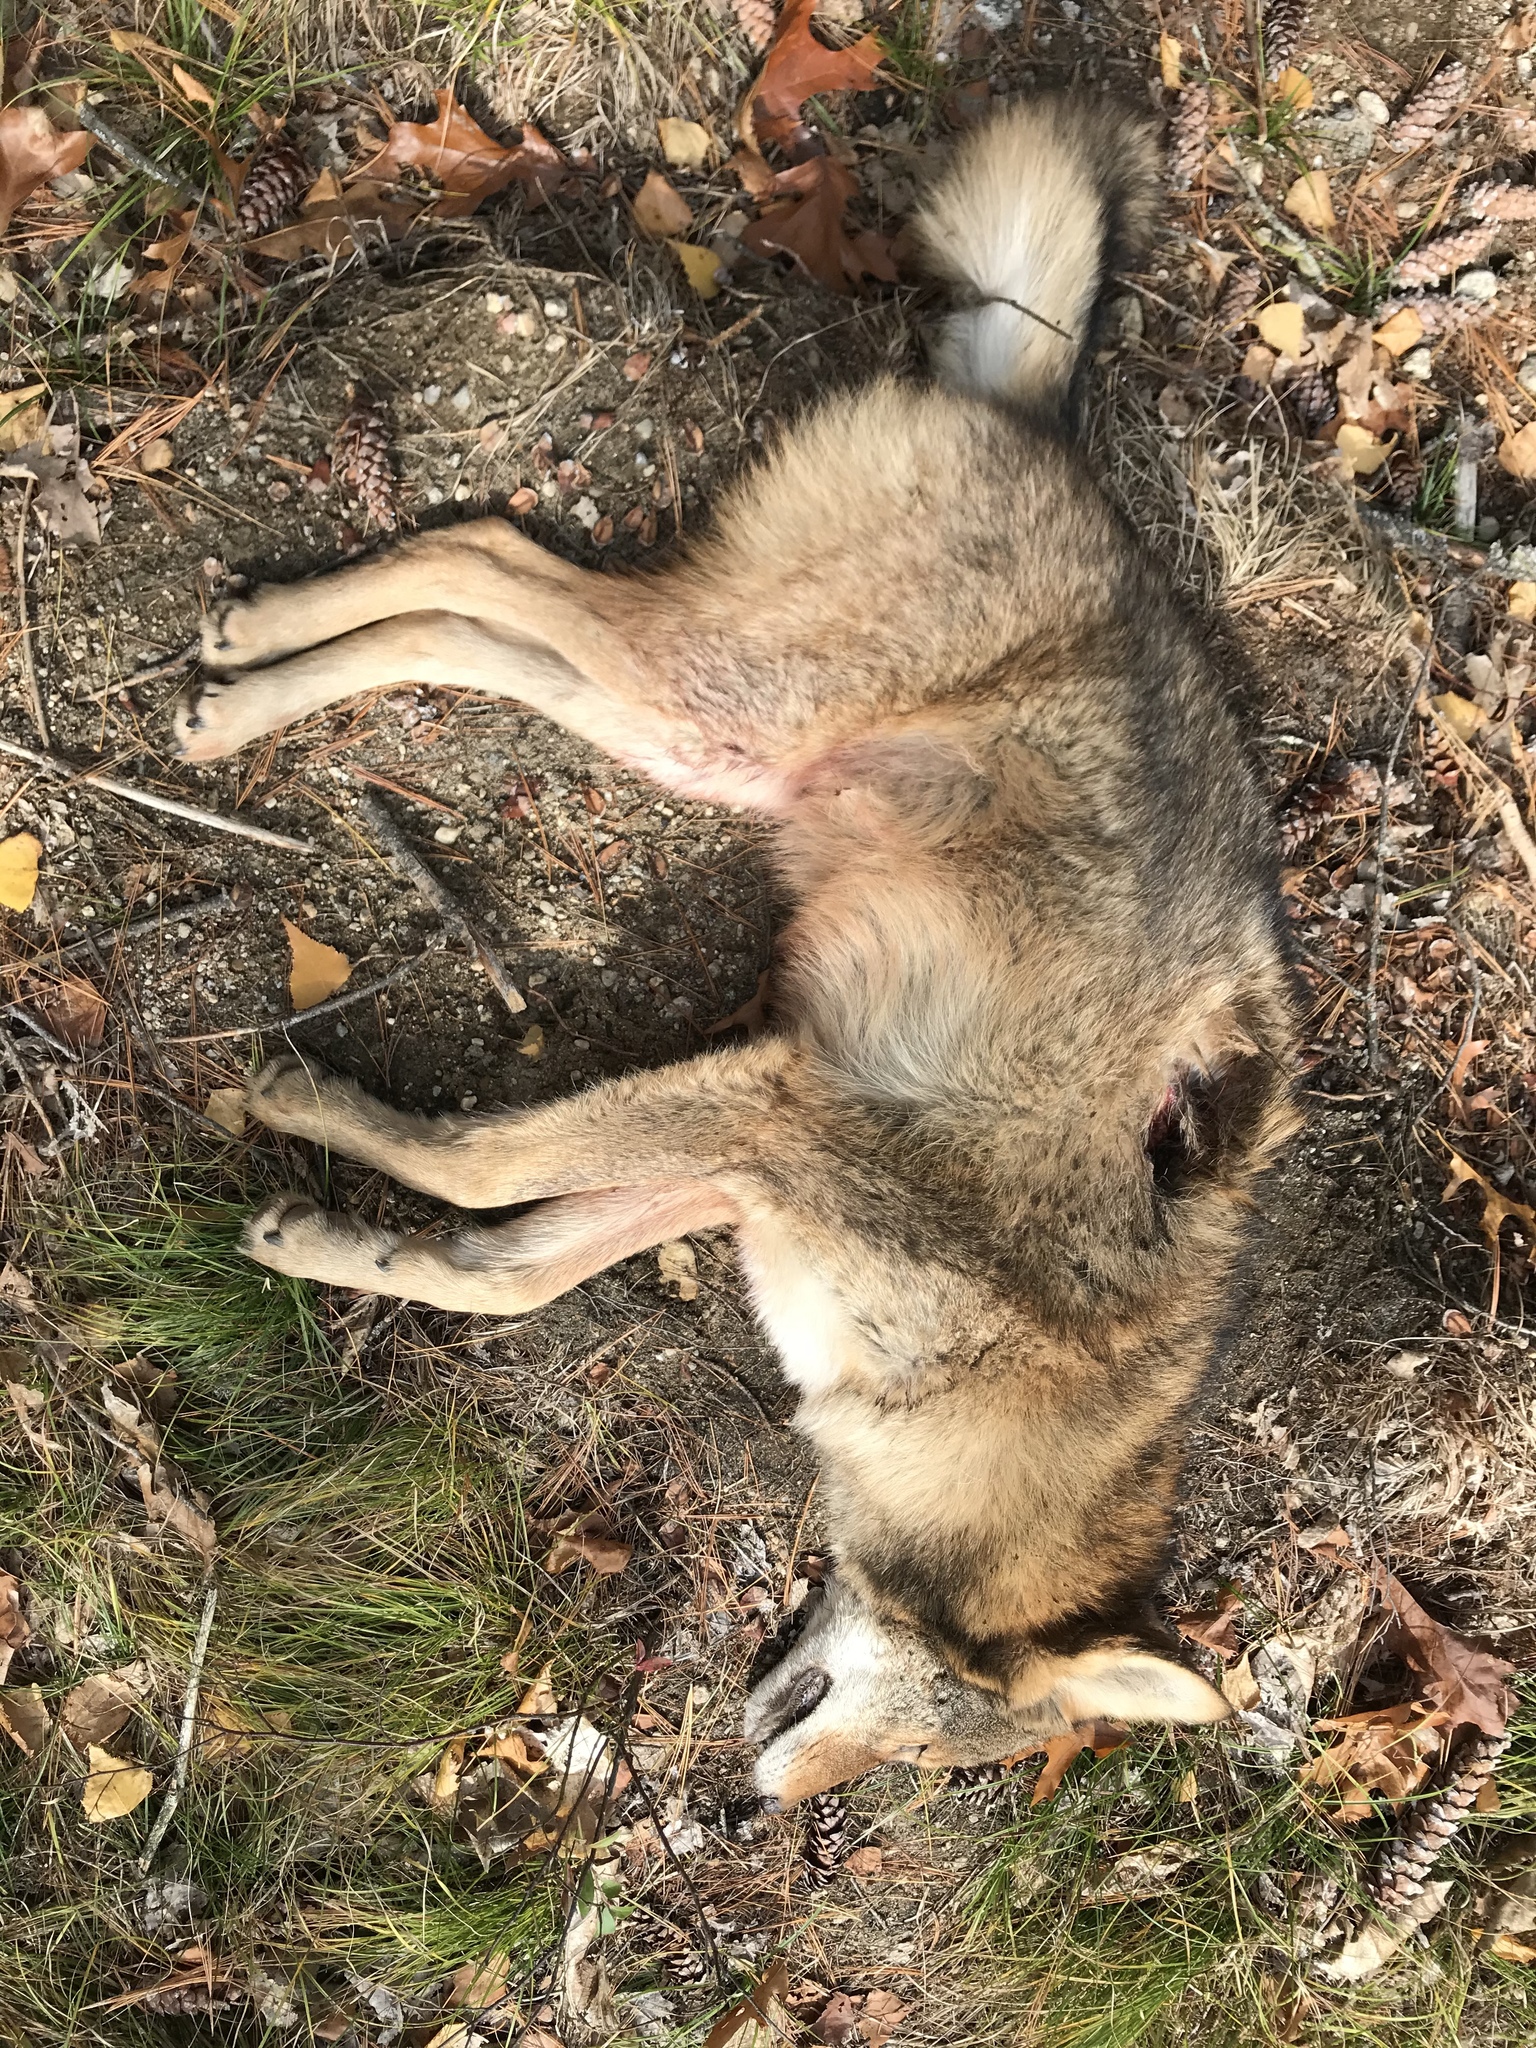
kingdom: Animalia
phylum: Chordata
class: Mammalia
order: Carnivora
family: Canidae
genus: Canis
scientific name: Canis latrans
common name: Coyote
